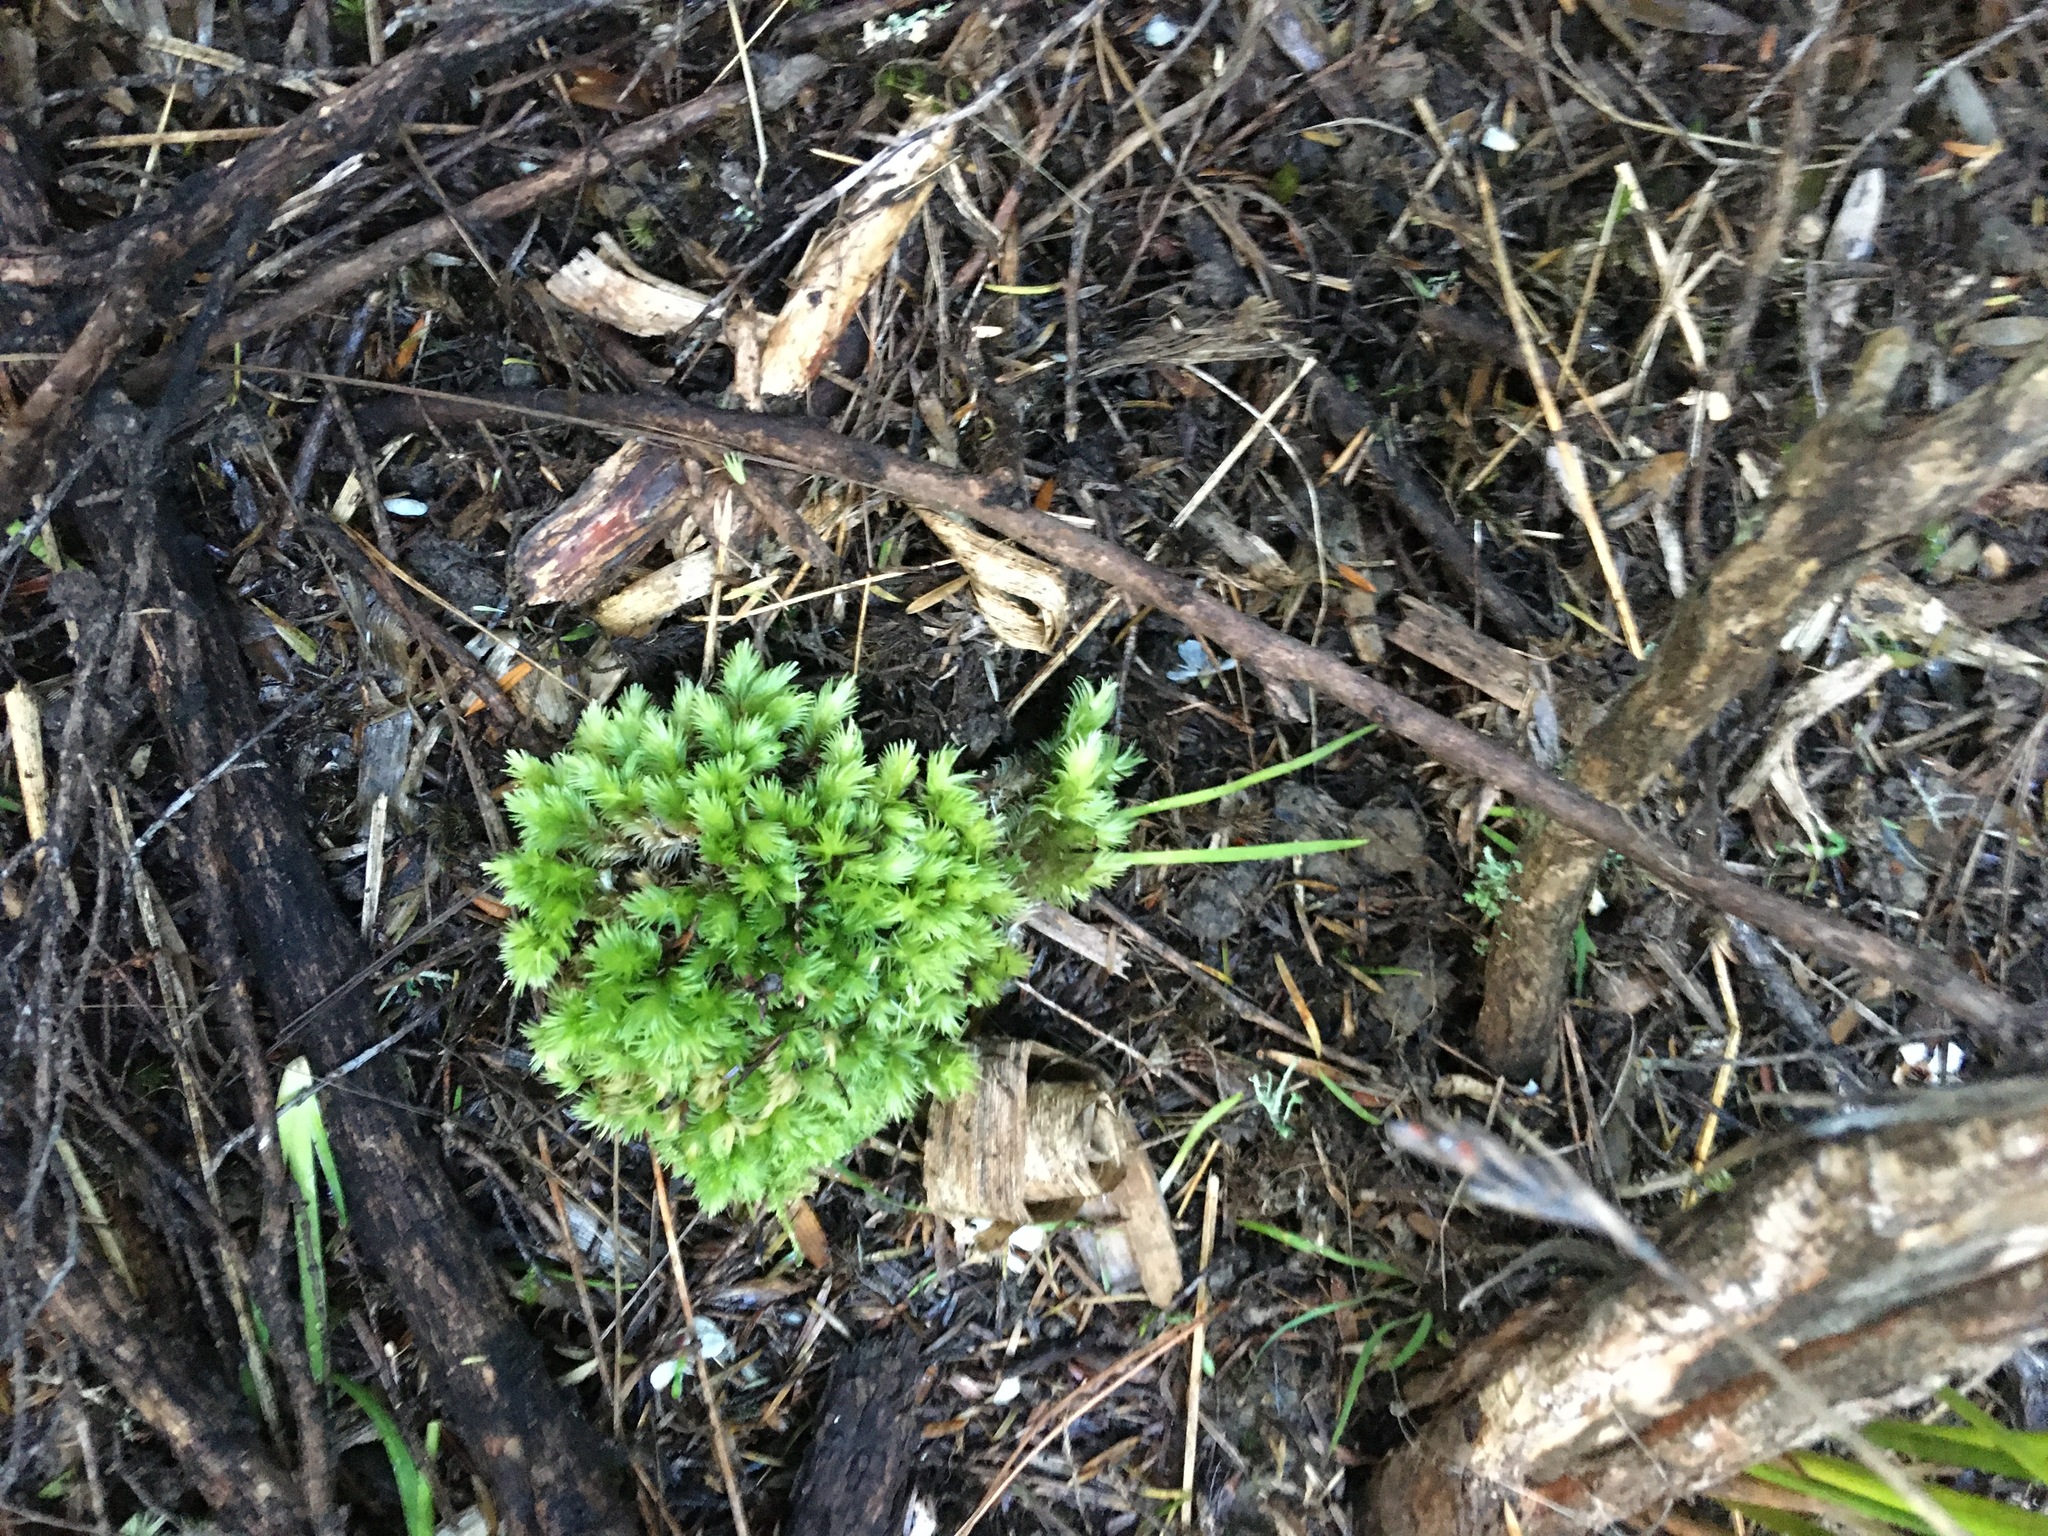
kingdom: Plantae
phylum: Bryophyta
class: Bryopsida
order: Dicranales
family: Leucobryaceae
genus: Leucobryum
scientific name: Leucobryum javense
